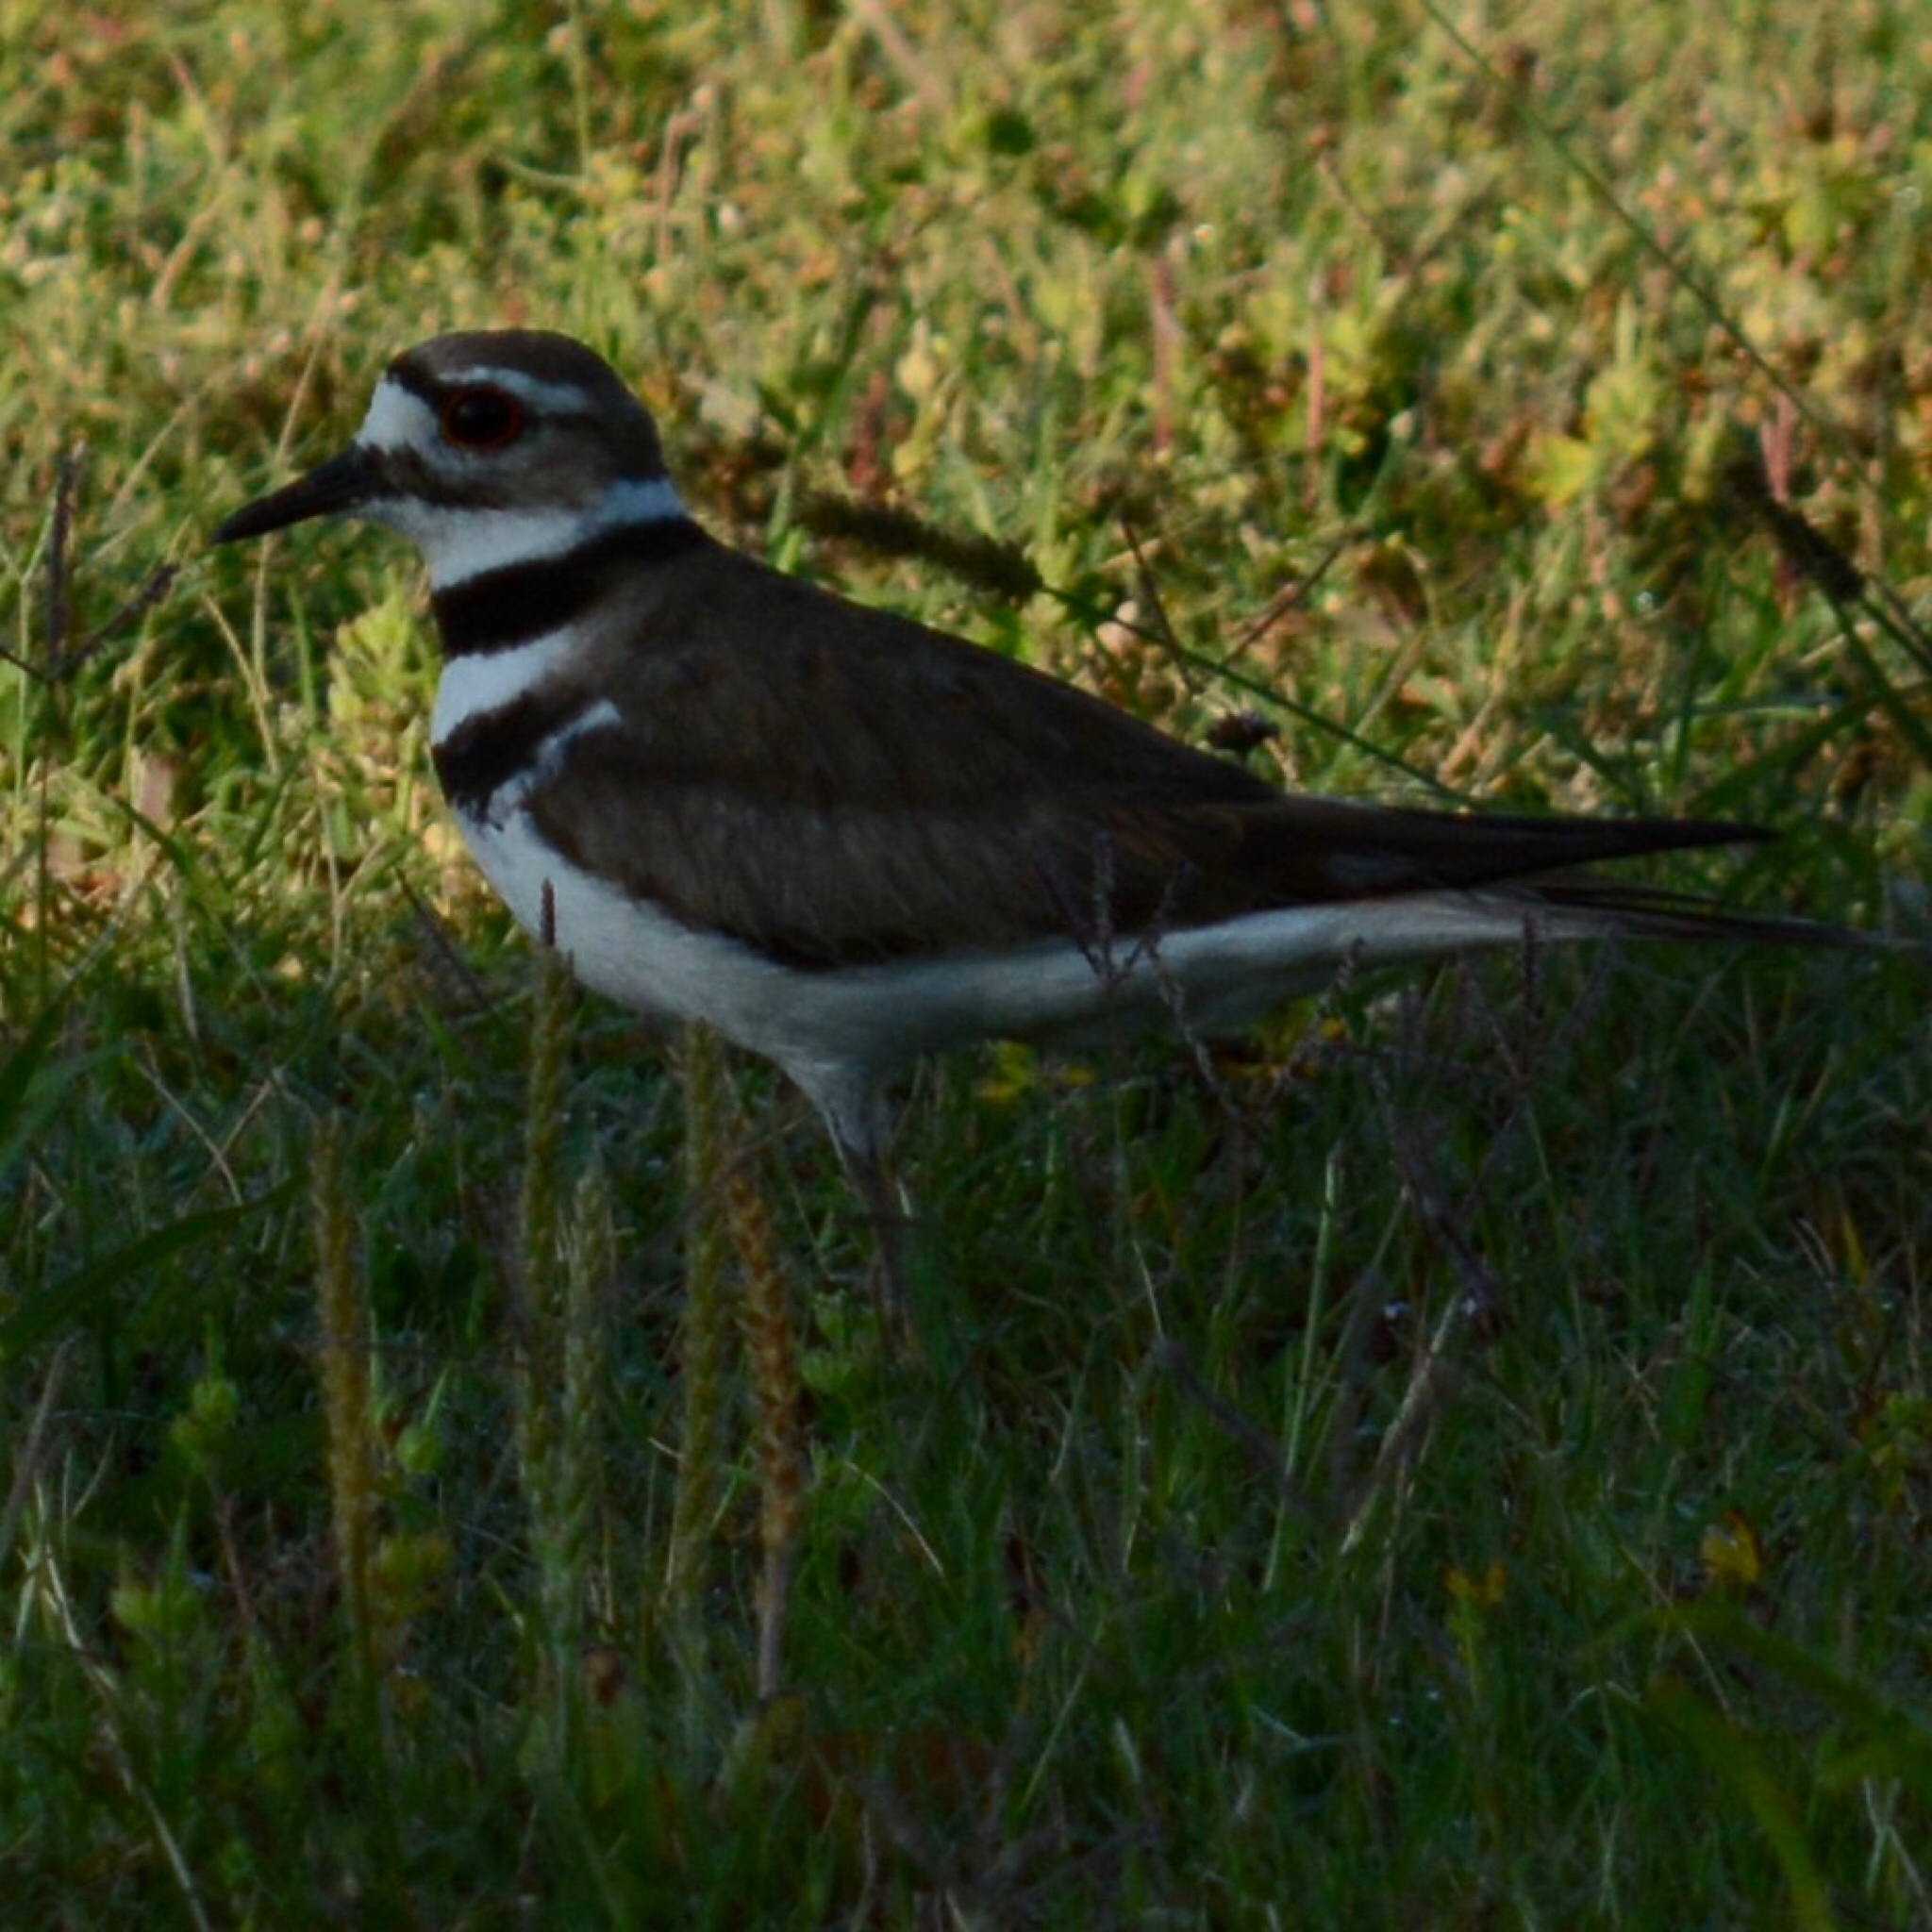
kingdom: Animalia
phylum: Chordata
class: Aves
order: Charadriiformes
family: Charadriidae
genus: Charadrius
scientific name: Charadrius vociferus
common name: Killdeer
